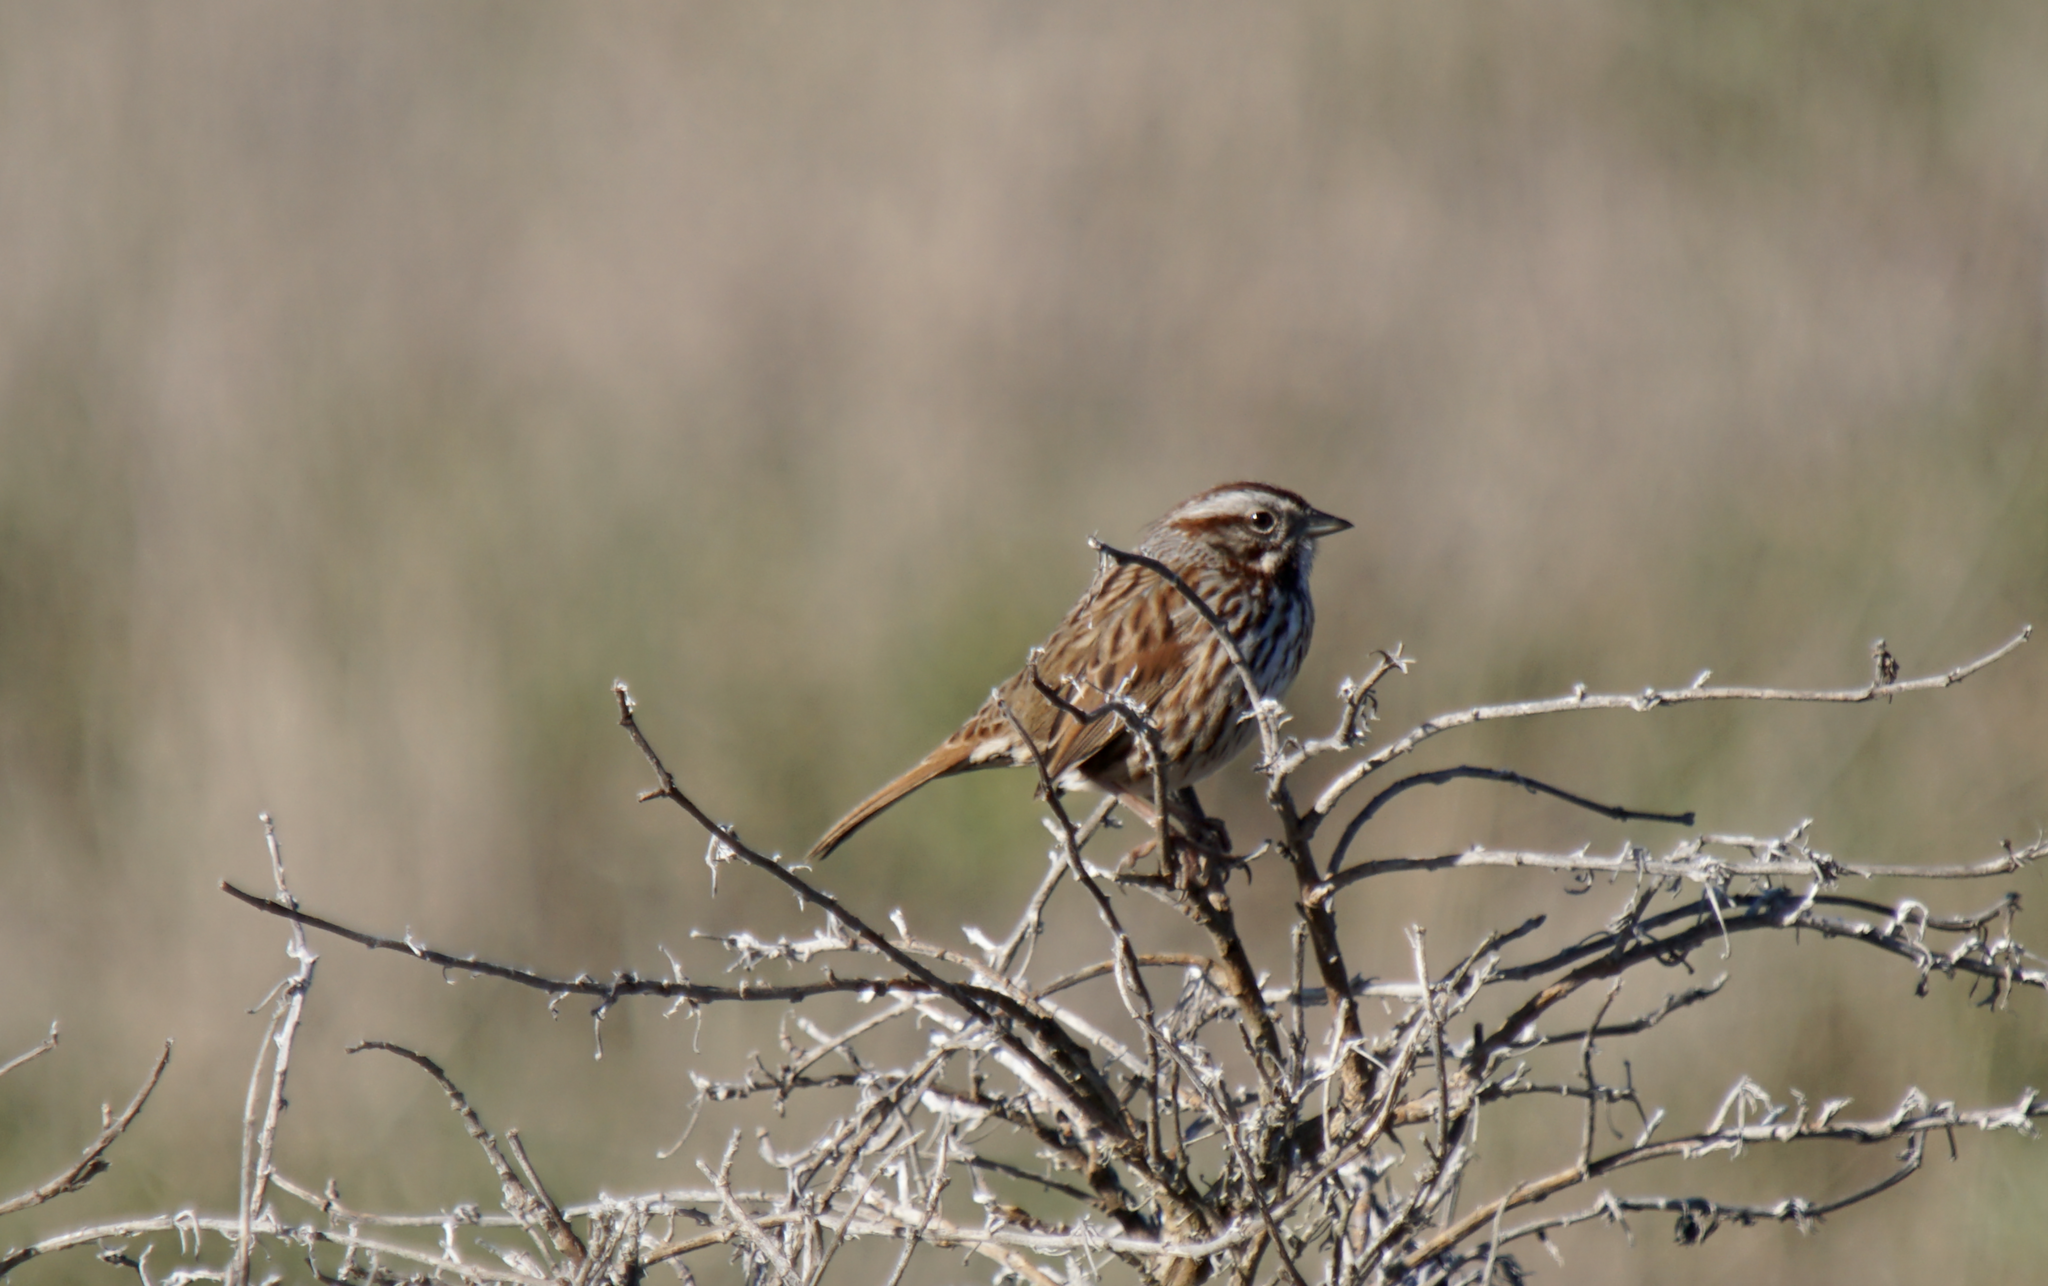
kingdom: Animalia
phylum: Chordata
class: Aves
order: Passeriformes
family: Passerellidae
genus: Melospiza
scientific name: Melospiza melodia
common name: Song sparrow
